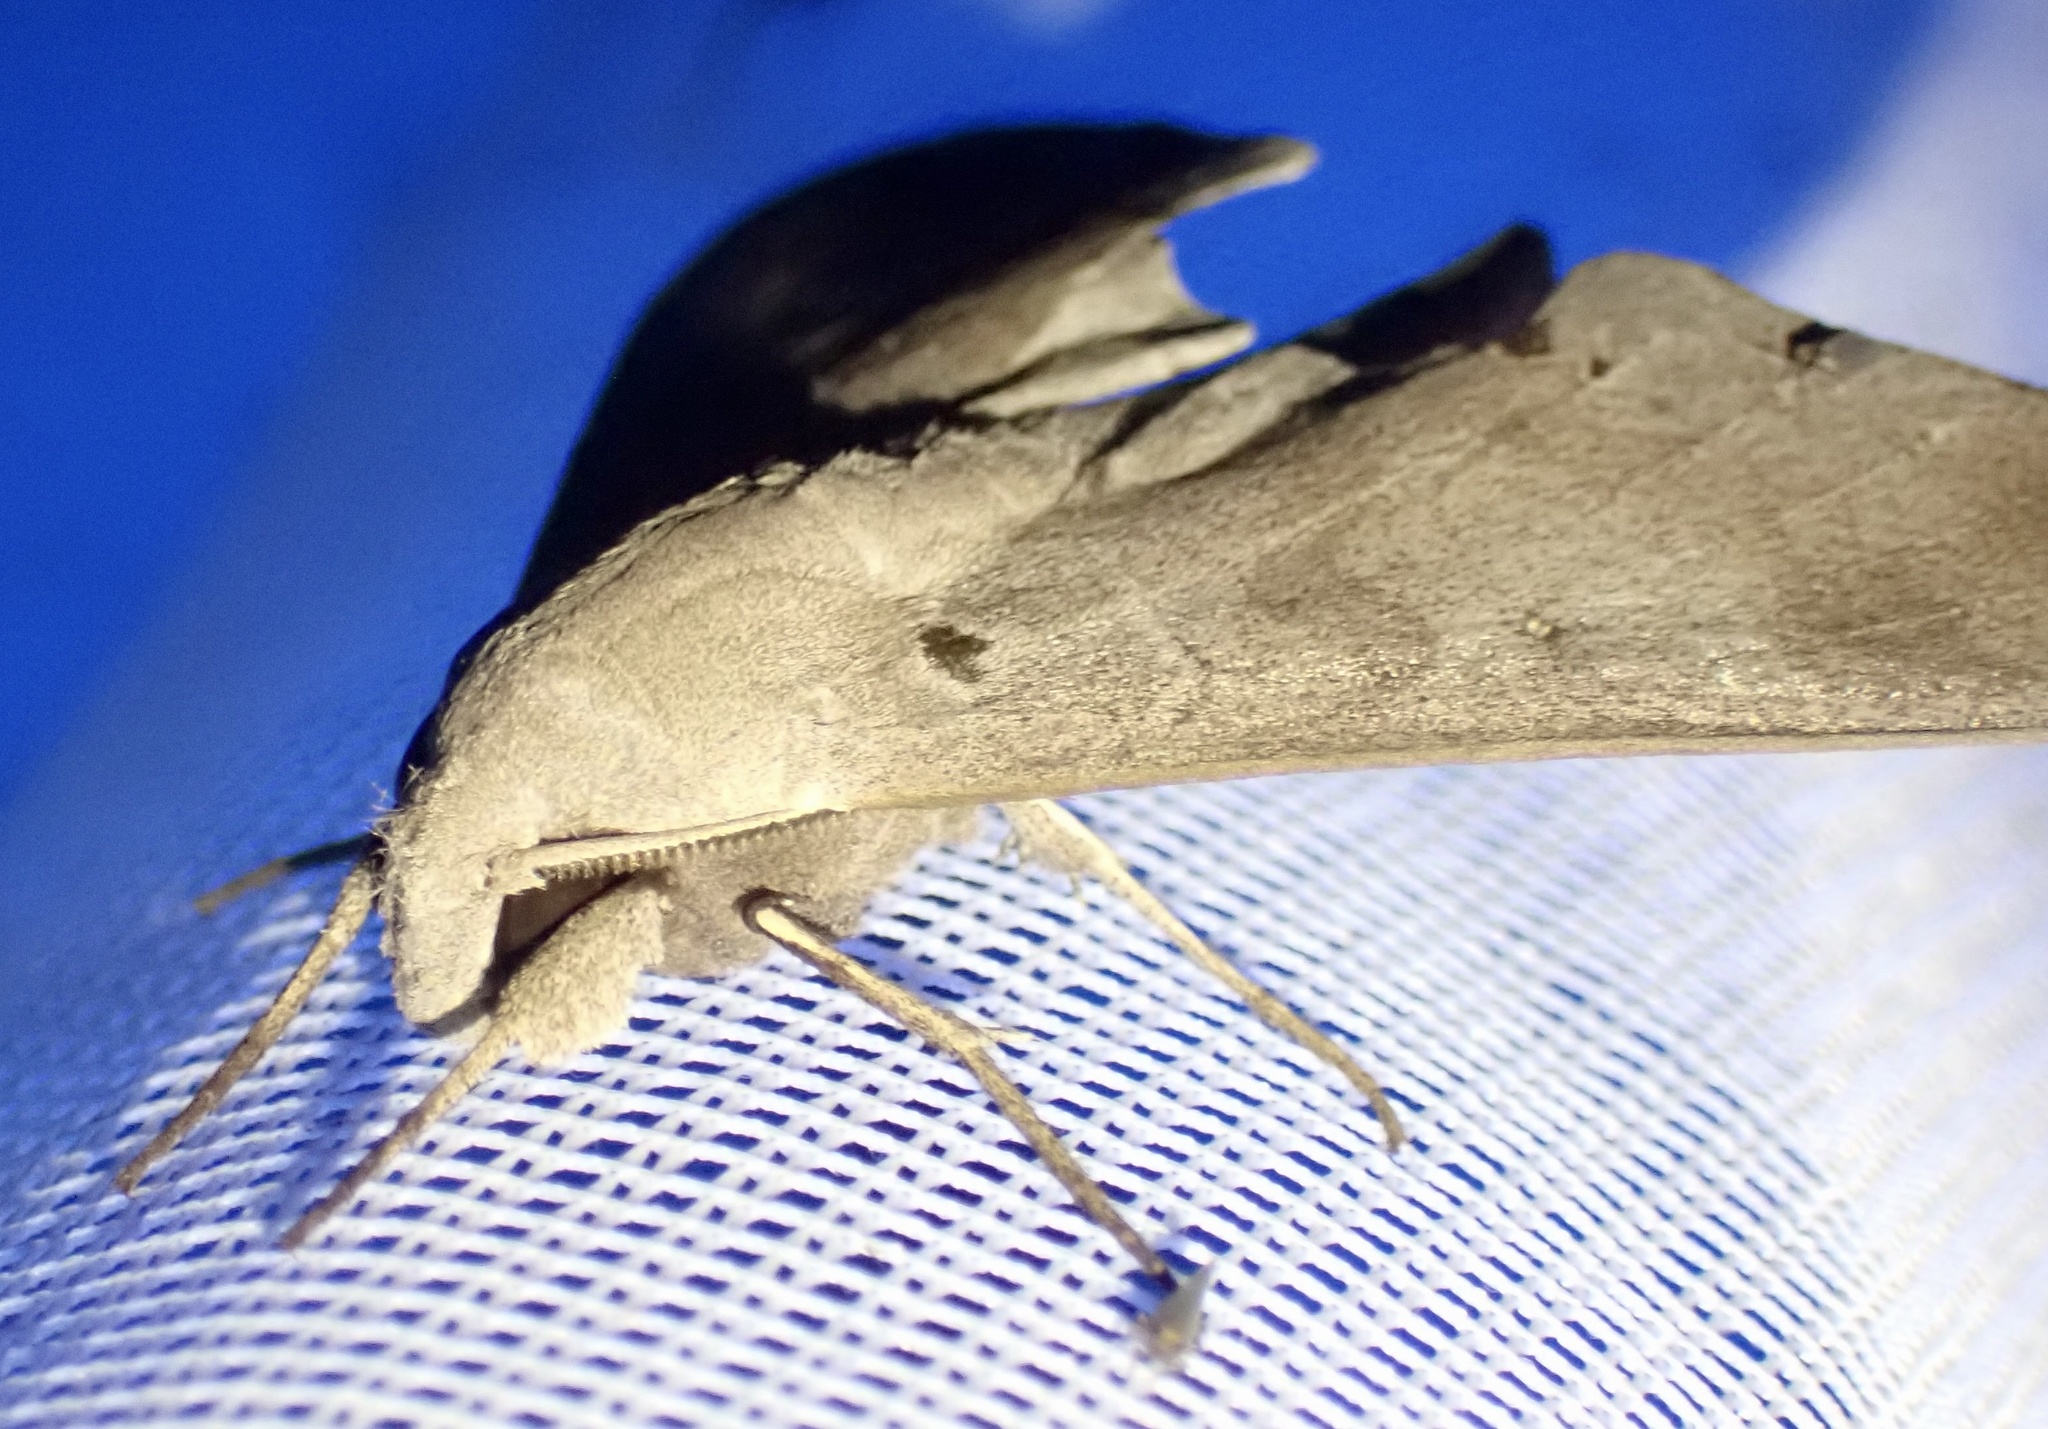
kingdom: Animalia
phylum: Arthropoda
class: Insecta
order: Lepidoptera
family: Sphingidae
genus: Polyptychus
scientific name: Polyptychus carteri
